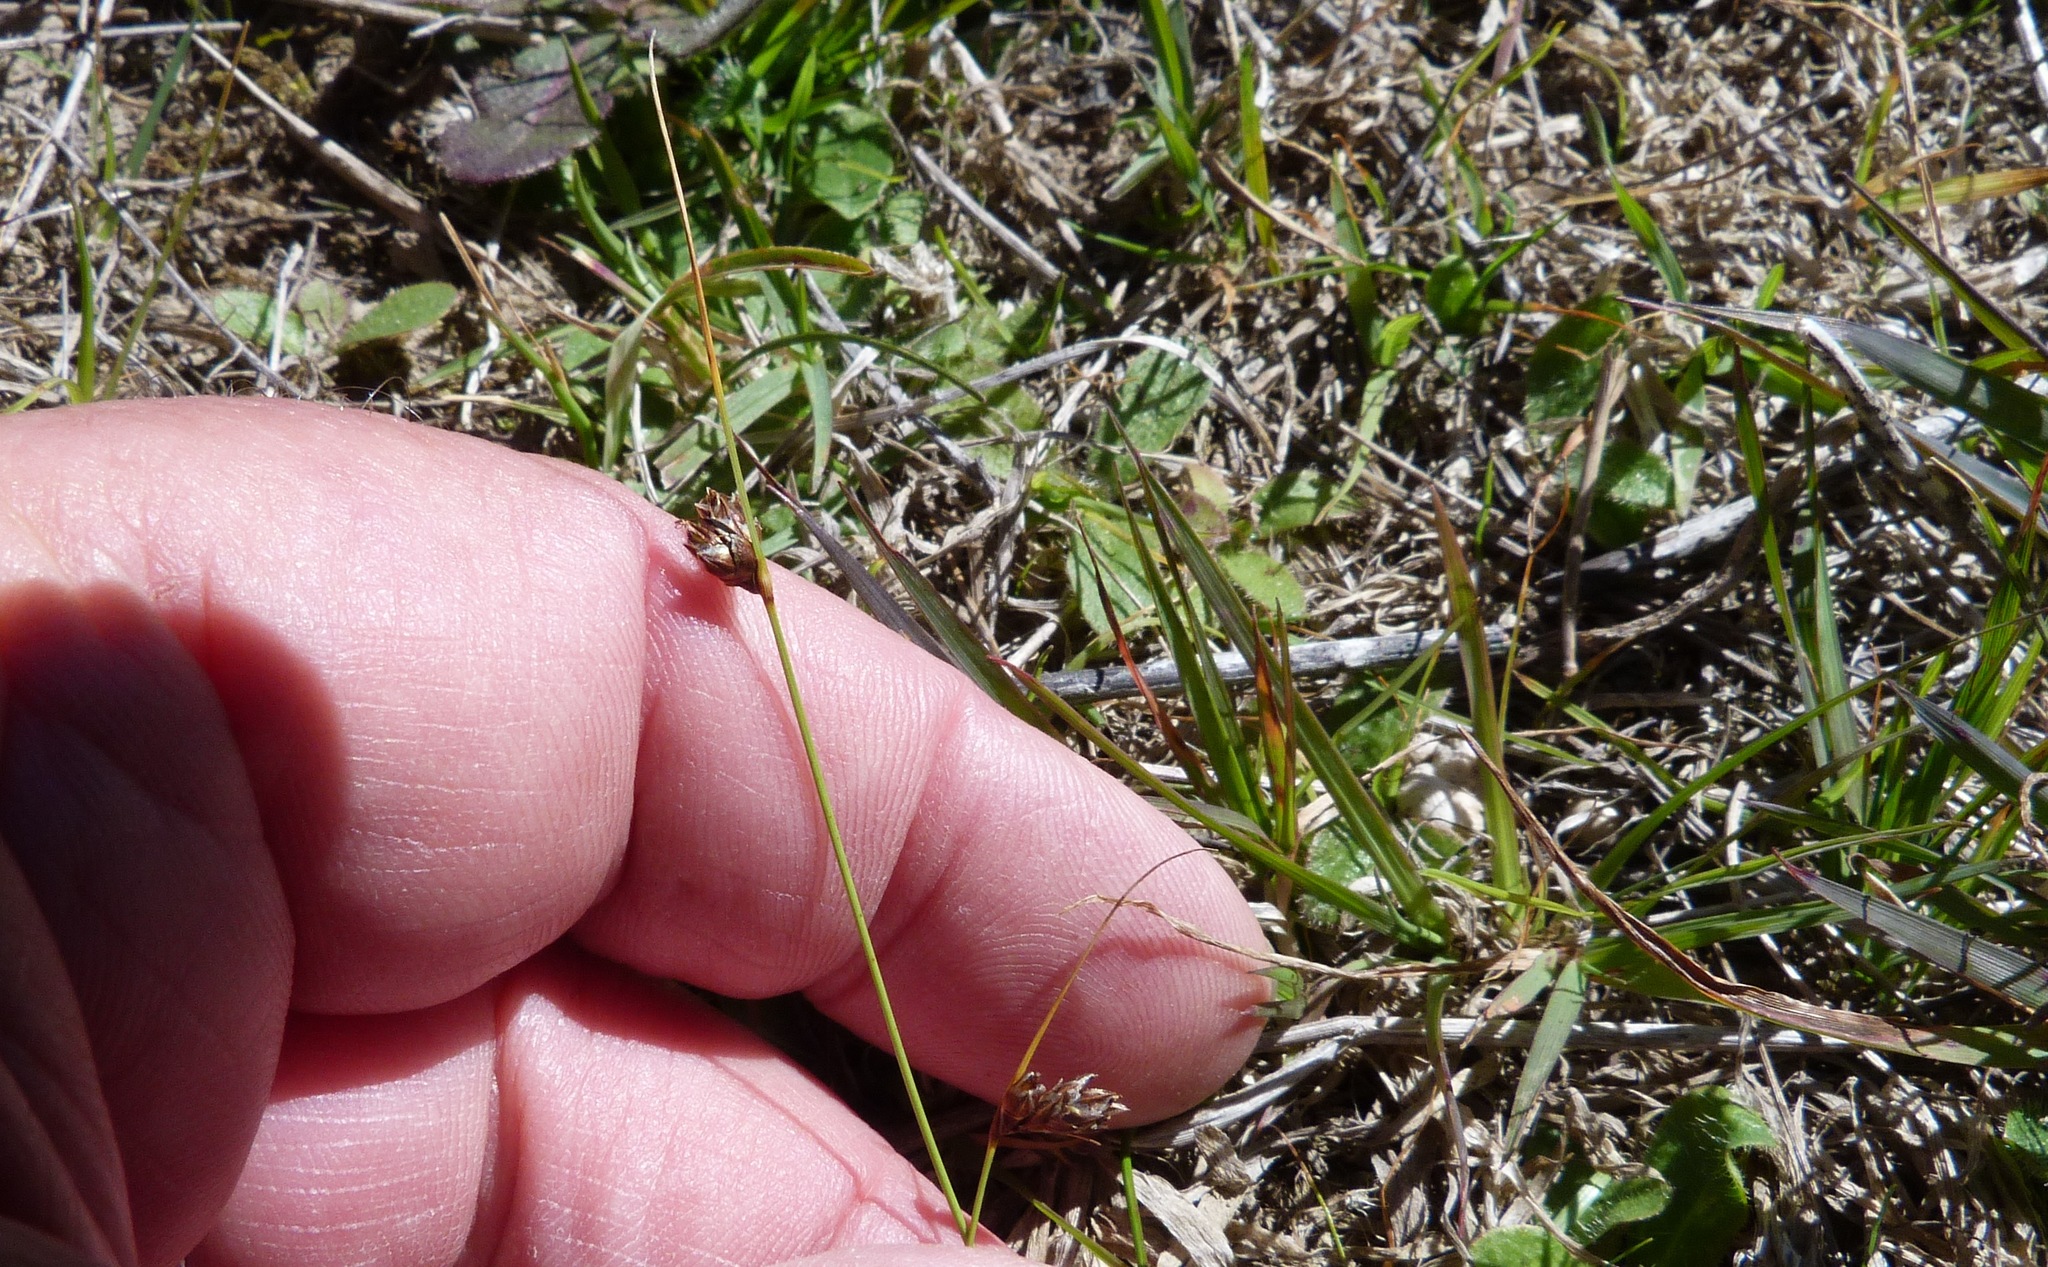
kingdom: Plantae
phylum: Tracheophyta
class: Liliopsida
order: Poales
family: Cyperaceae
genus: Carex
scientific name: Carex colensoi
